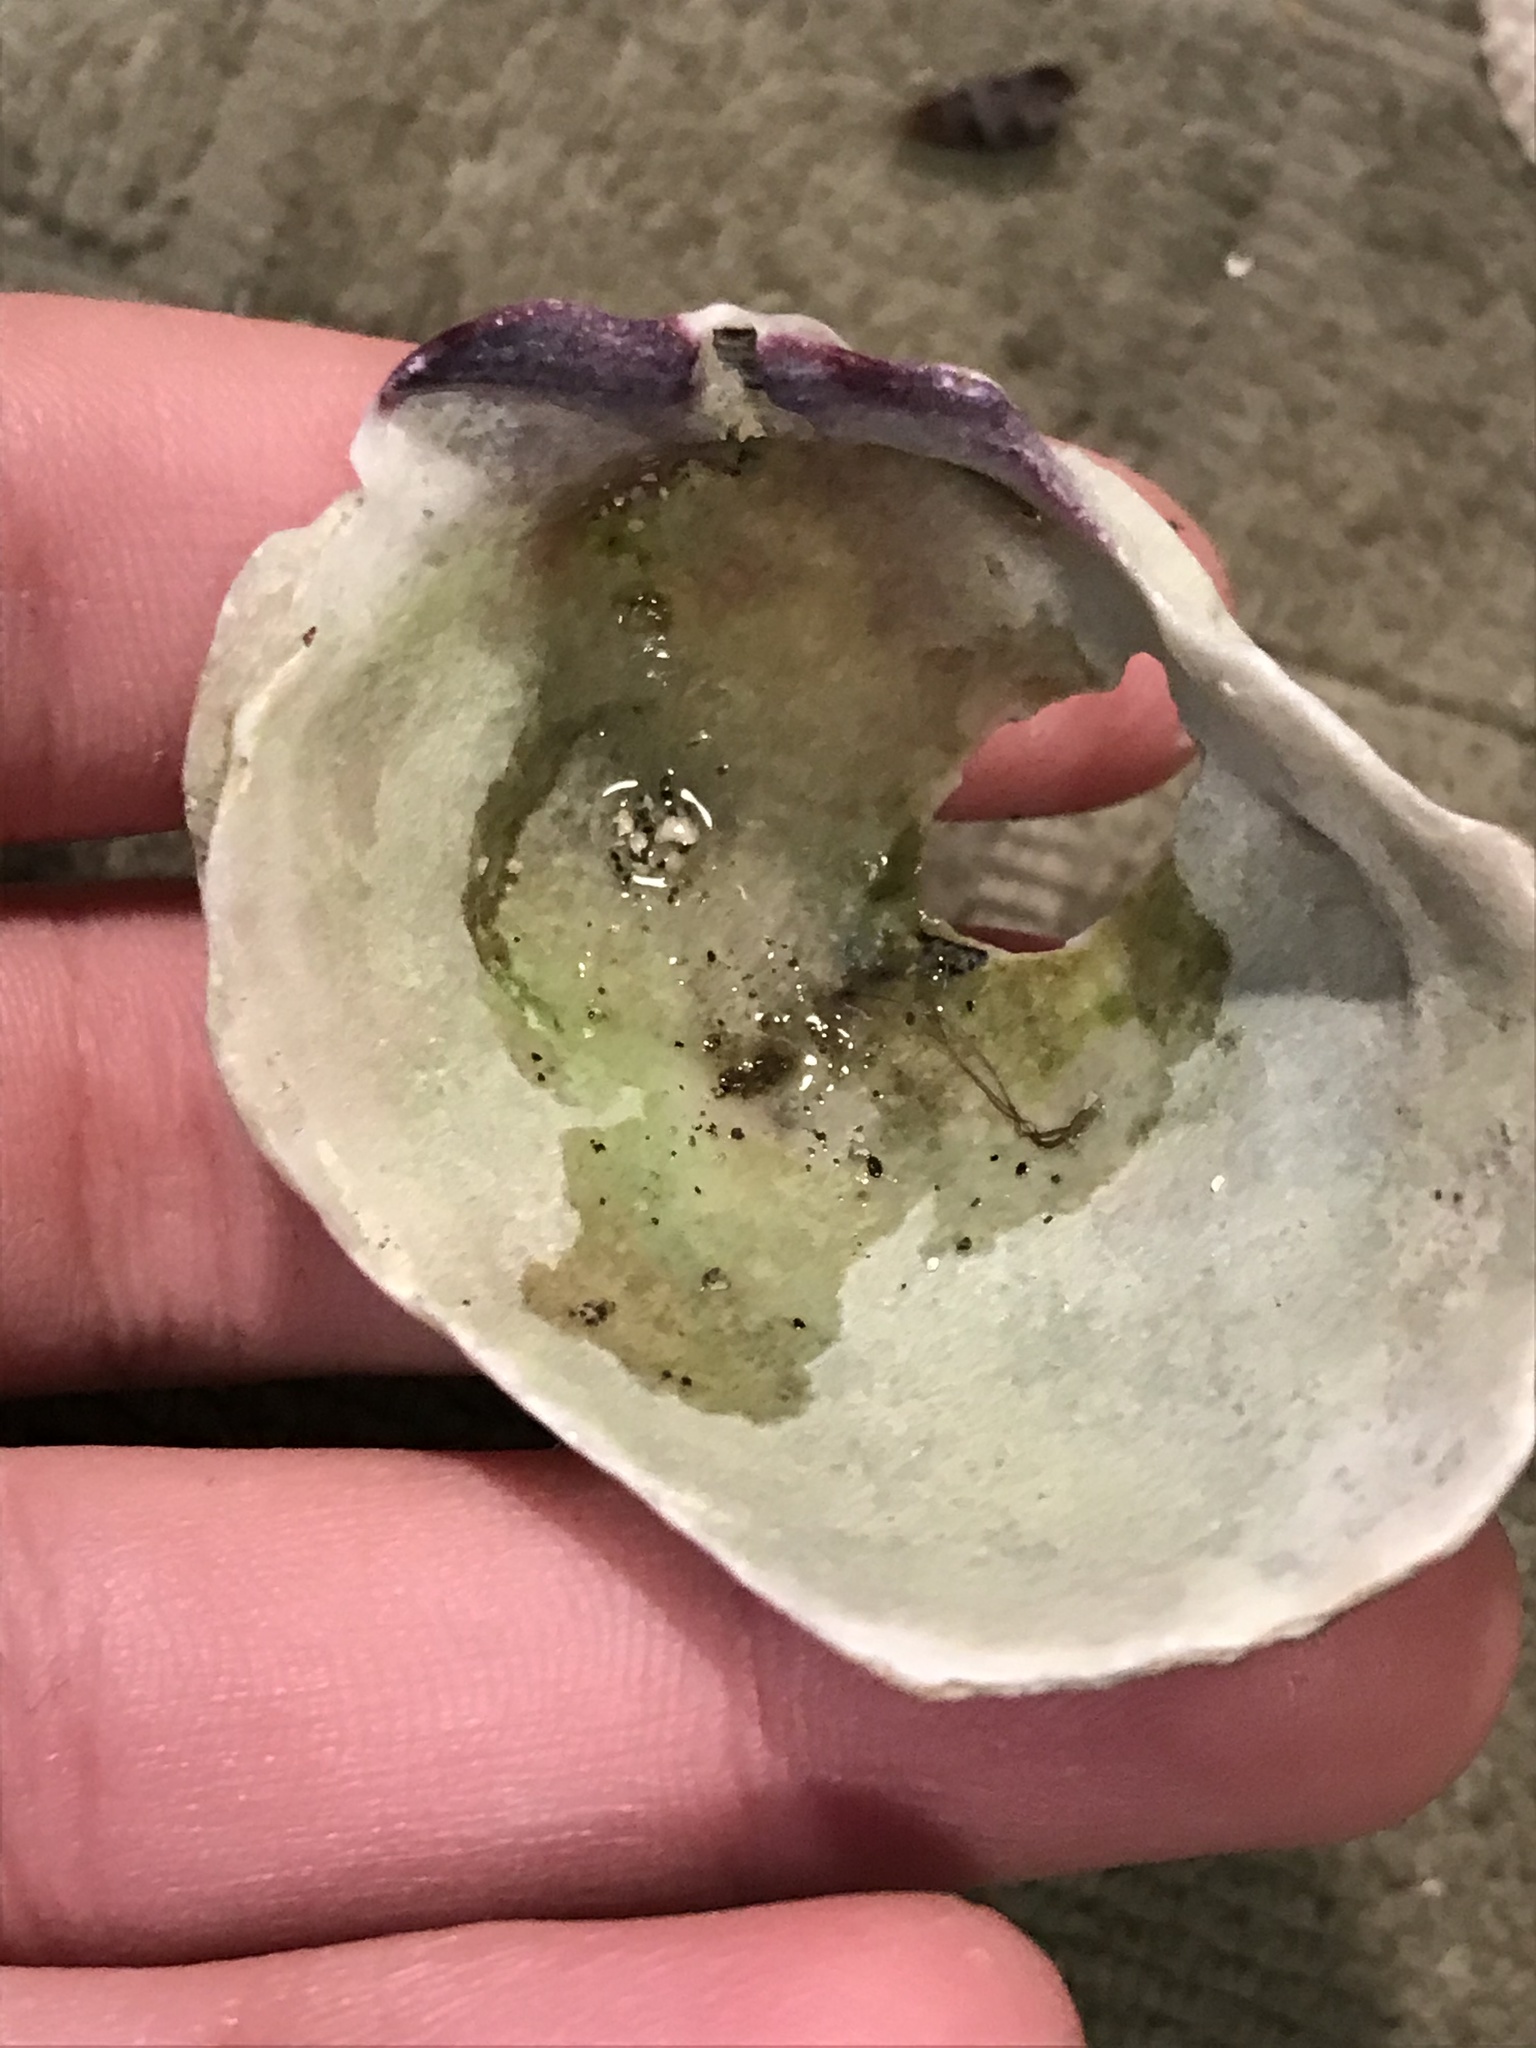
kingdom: Animalia
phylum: Mollusca
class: Bivalvia
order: Pectinida
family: Pectinidae
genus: Crassadoma
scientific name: Crassadoma gigantea
